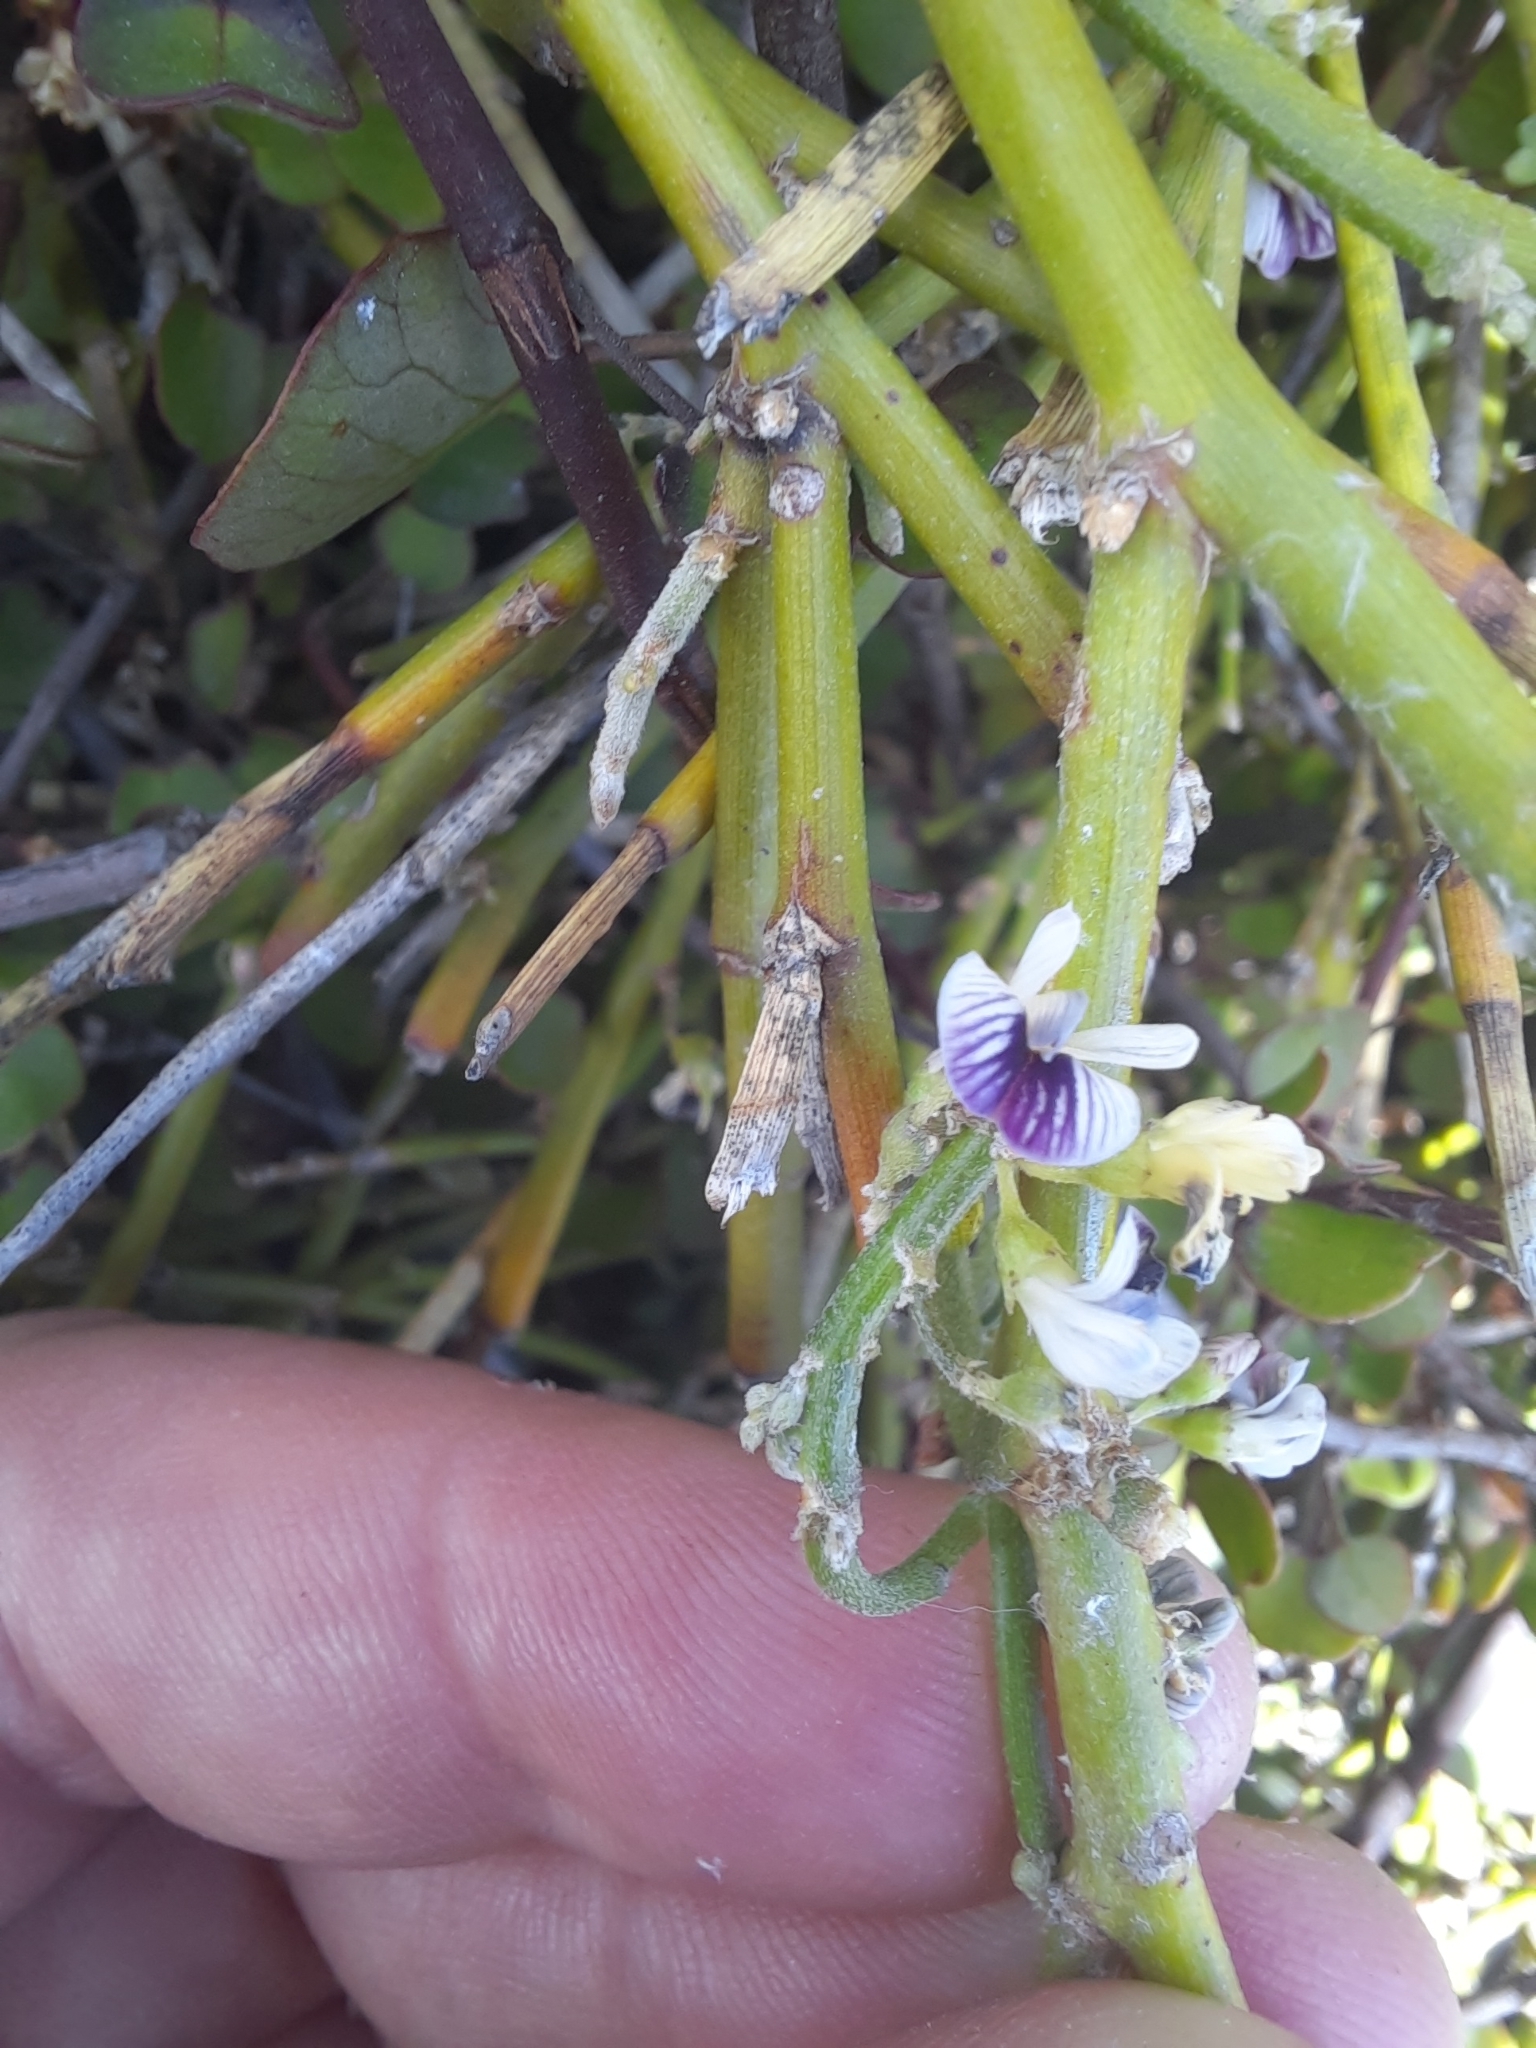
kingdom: Plantae
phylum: Tracheophyta
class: Magnoliopsida
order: Fabales
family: Fabaceae
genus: Carmichaelia
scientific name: Carmichaelia appressa
